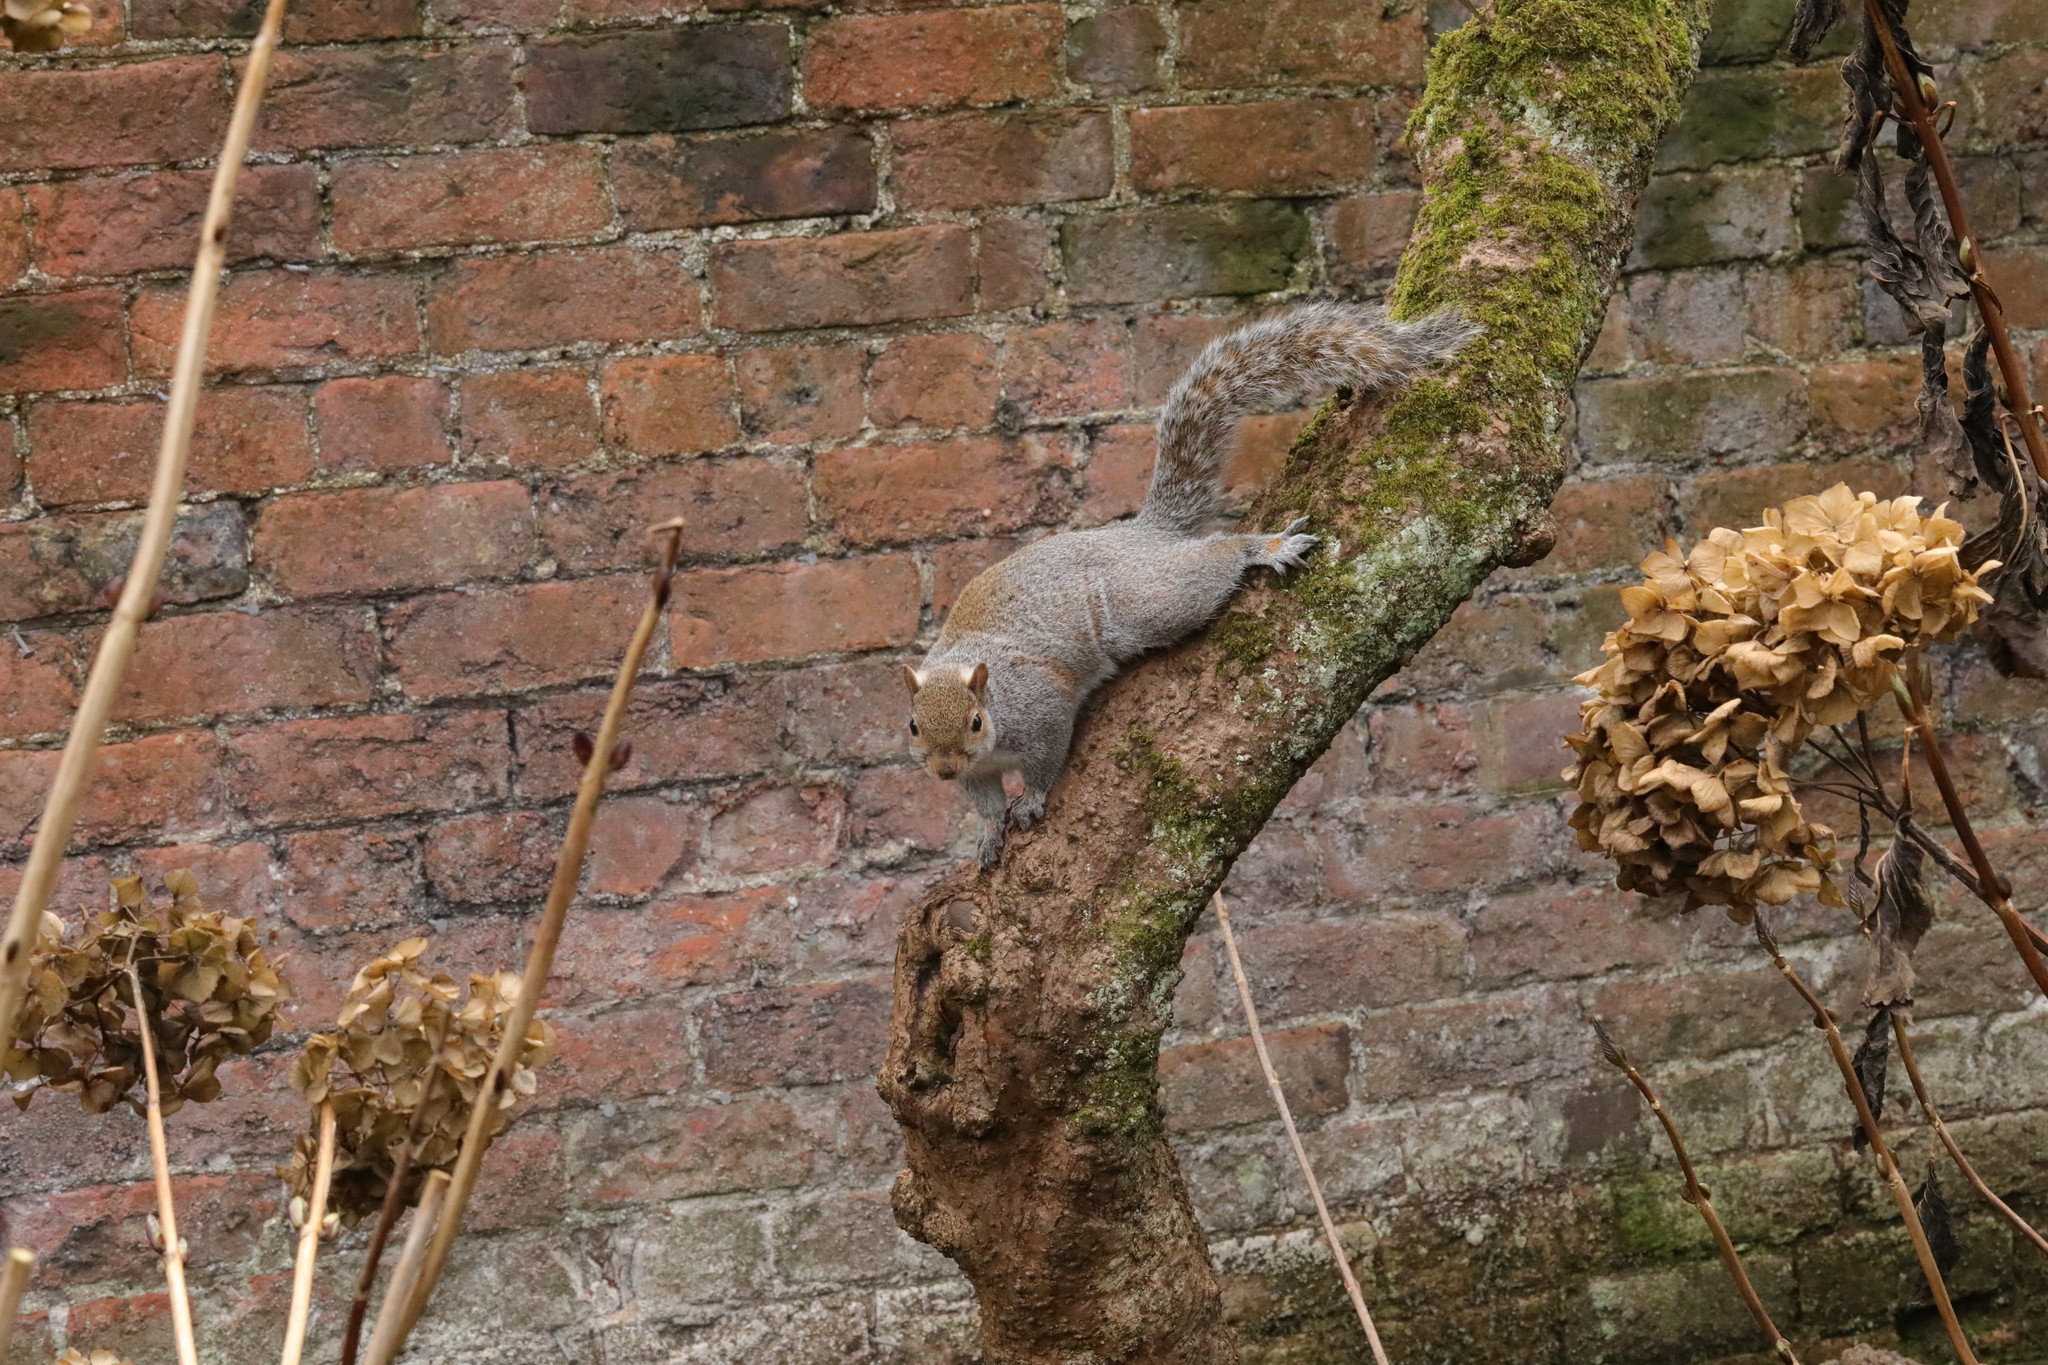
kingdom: Animalia
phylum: Chordata
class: Mammalia
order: Rodentia
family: Sciuridae
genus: Sciurus
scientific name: Sciurus carolinensis
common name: Eastern gray squirrel
